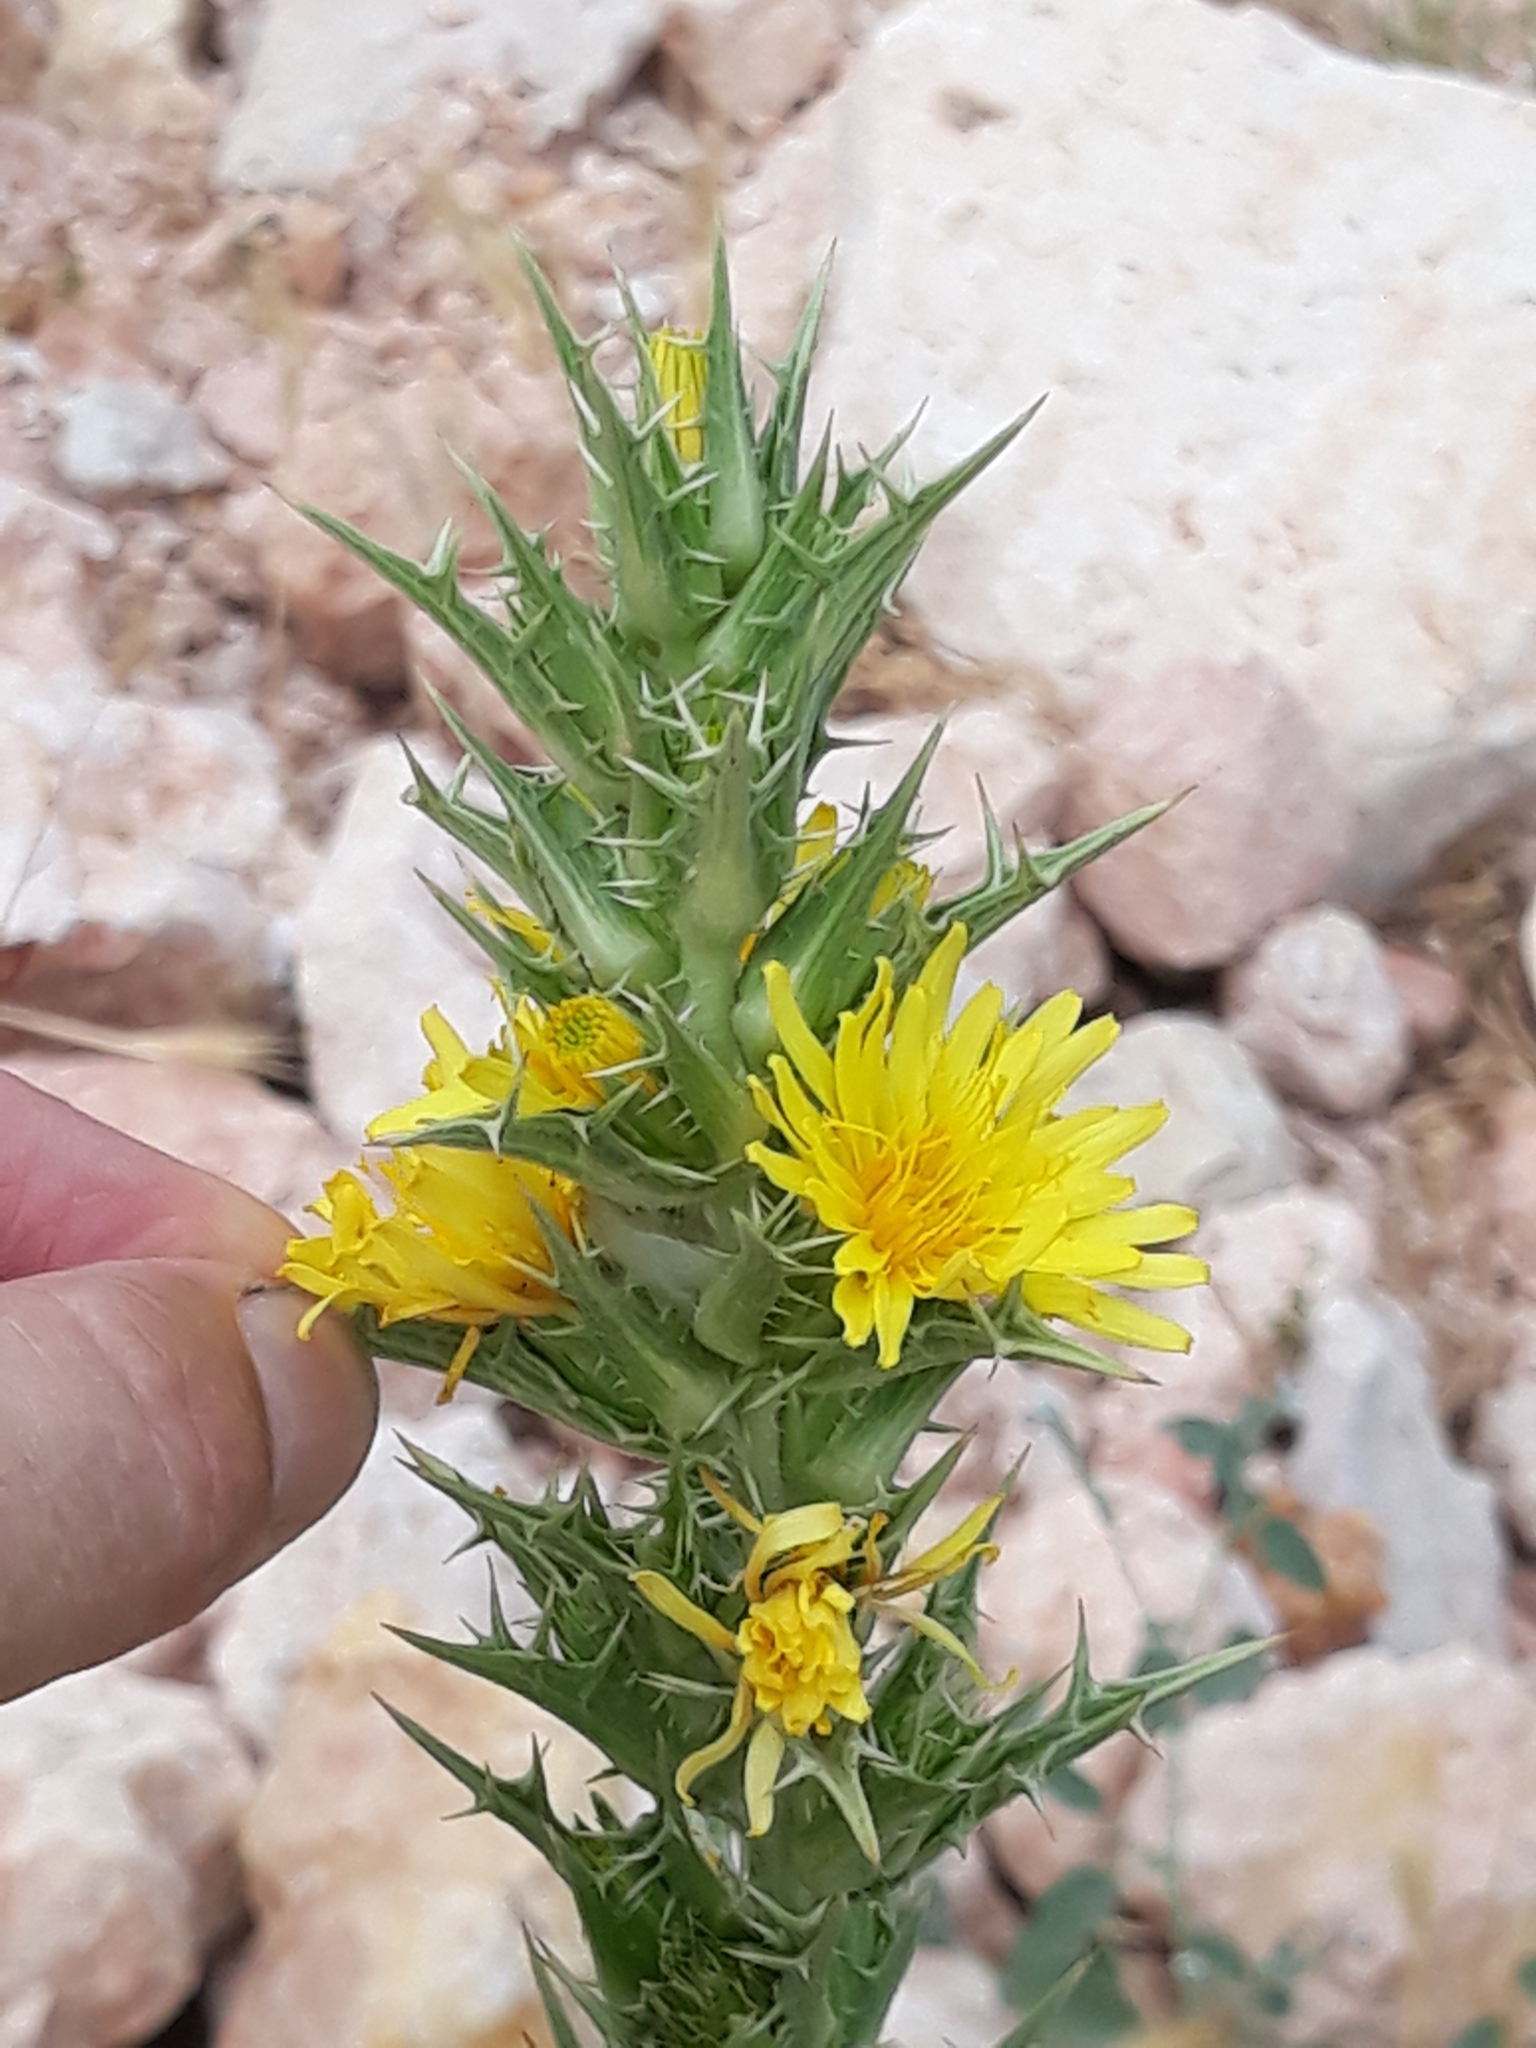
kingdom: Plantae
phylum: Tracheophyta
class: Magnoliopsida
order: Asterales
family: Asteraceae
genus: Scolymus
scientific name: Scolymus hispanicus
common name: Golden thistle
